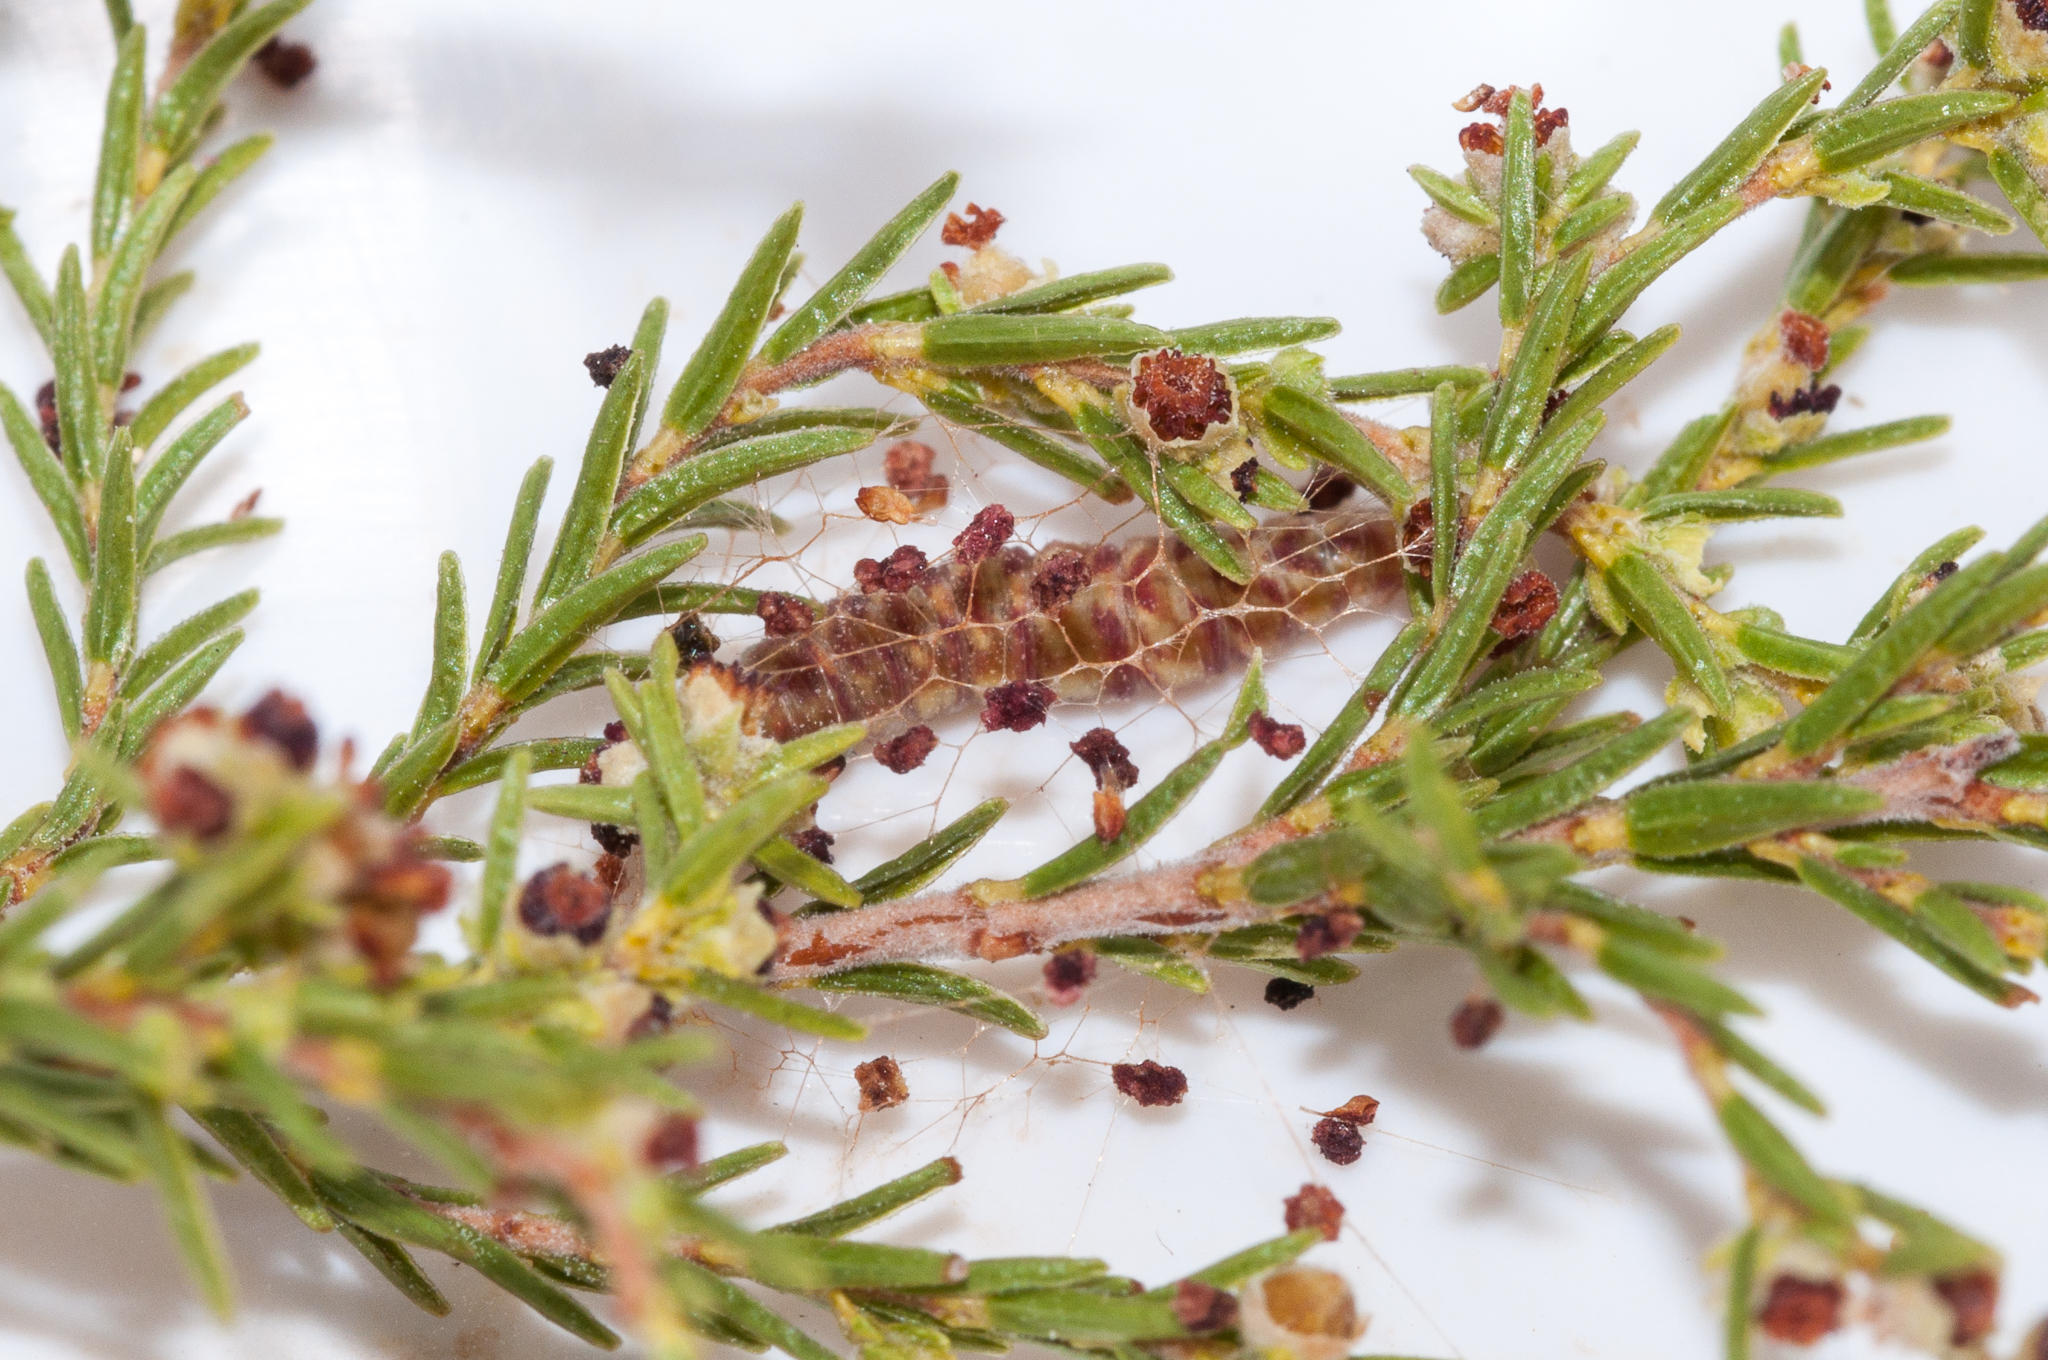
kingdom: Animalia
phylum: Arthropoda
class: Insecta
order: Lepidoptera
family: Geometridae
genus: Chlorocoma
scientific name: Chlorocoma didita
